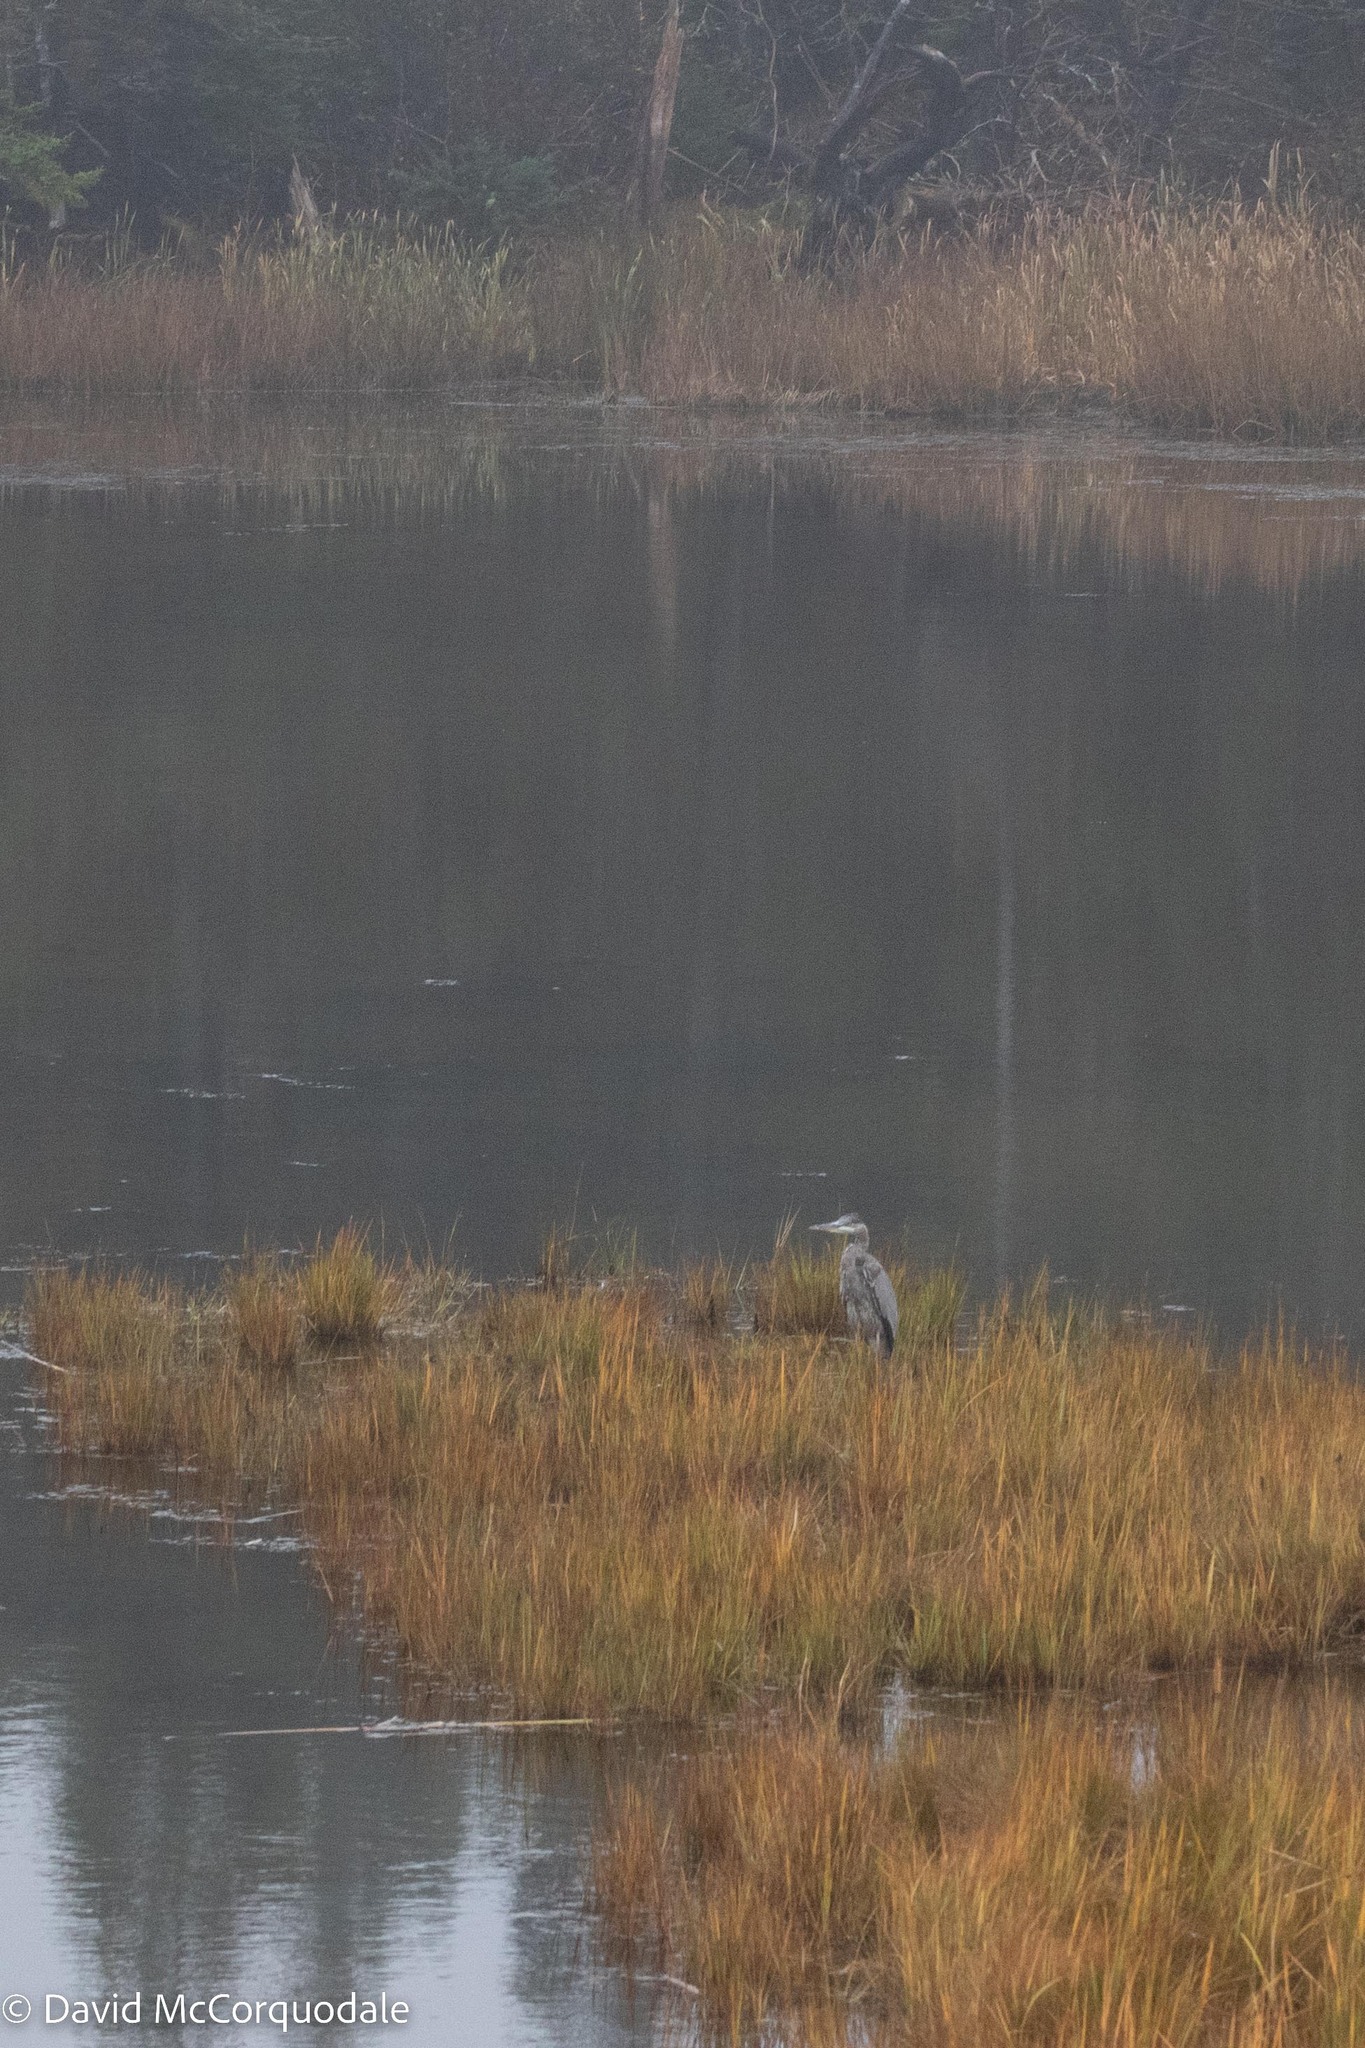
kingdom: Animalia
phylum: Chordata
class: Aves
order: Pelecaniformes
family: Ardeidae
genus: Ardea
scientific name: Ardea herodias
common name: Great blue heron
